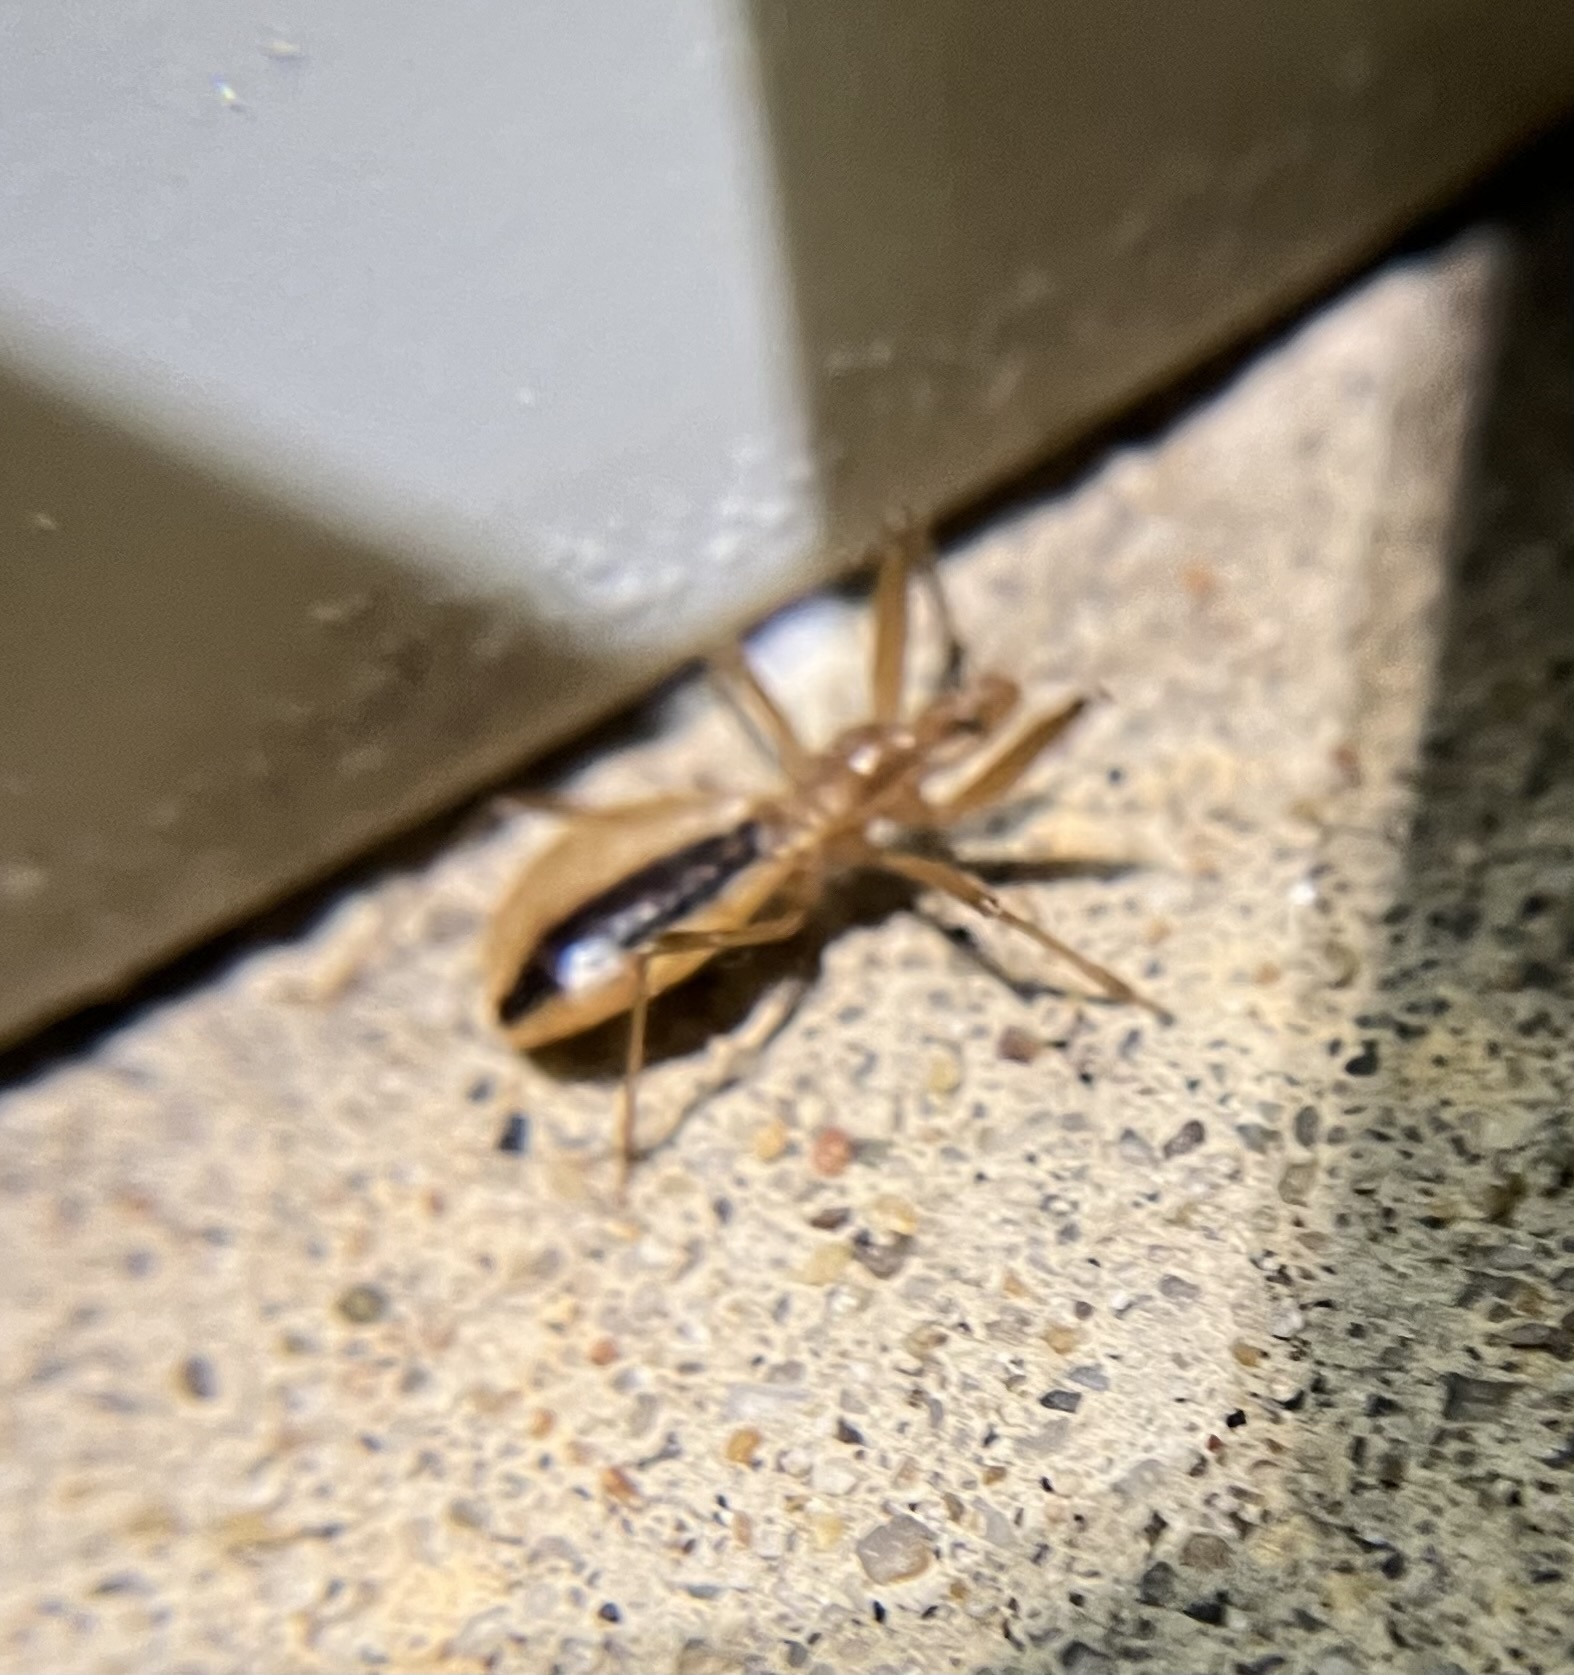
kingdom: Animalia
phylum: Arthropoda
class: Insecta
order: Hemiptera
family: Reduviidae
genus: Fitchia
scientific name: Fitchia aptera
